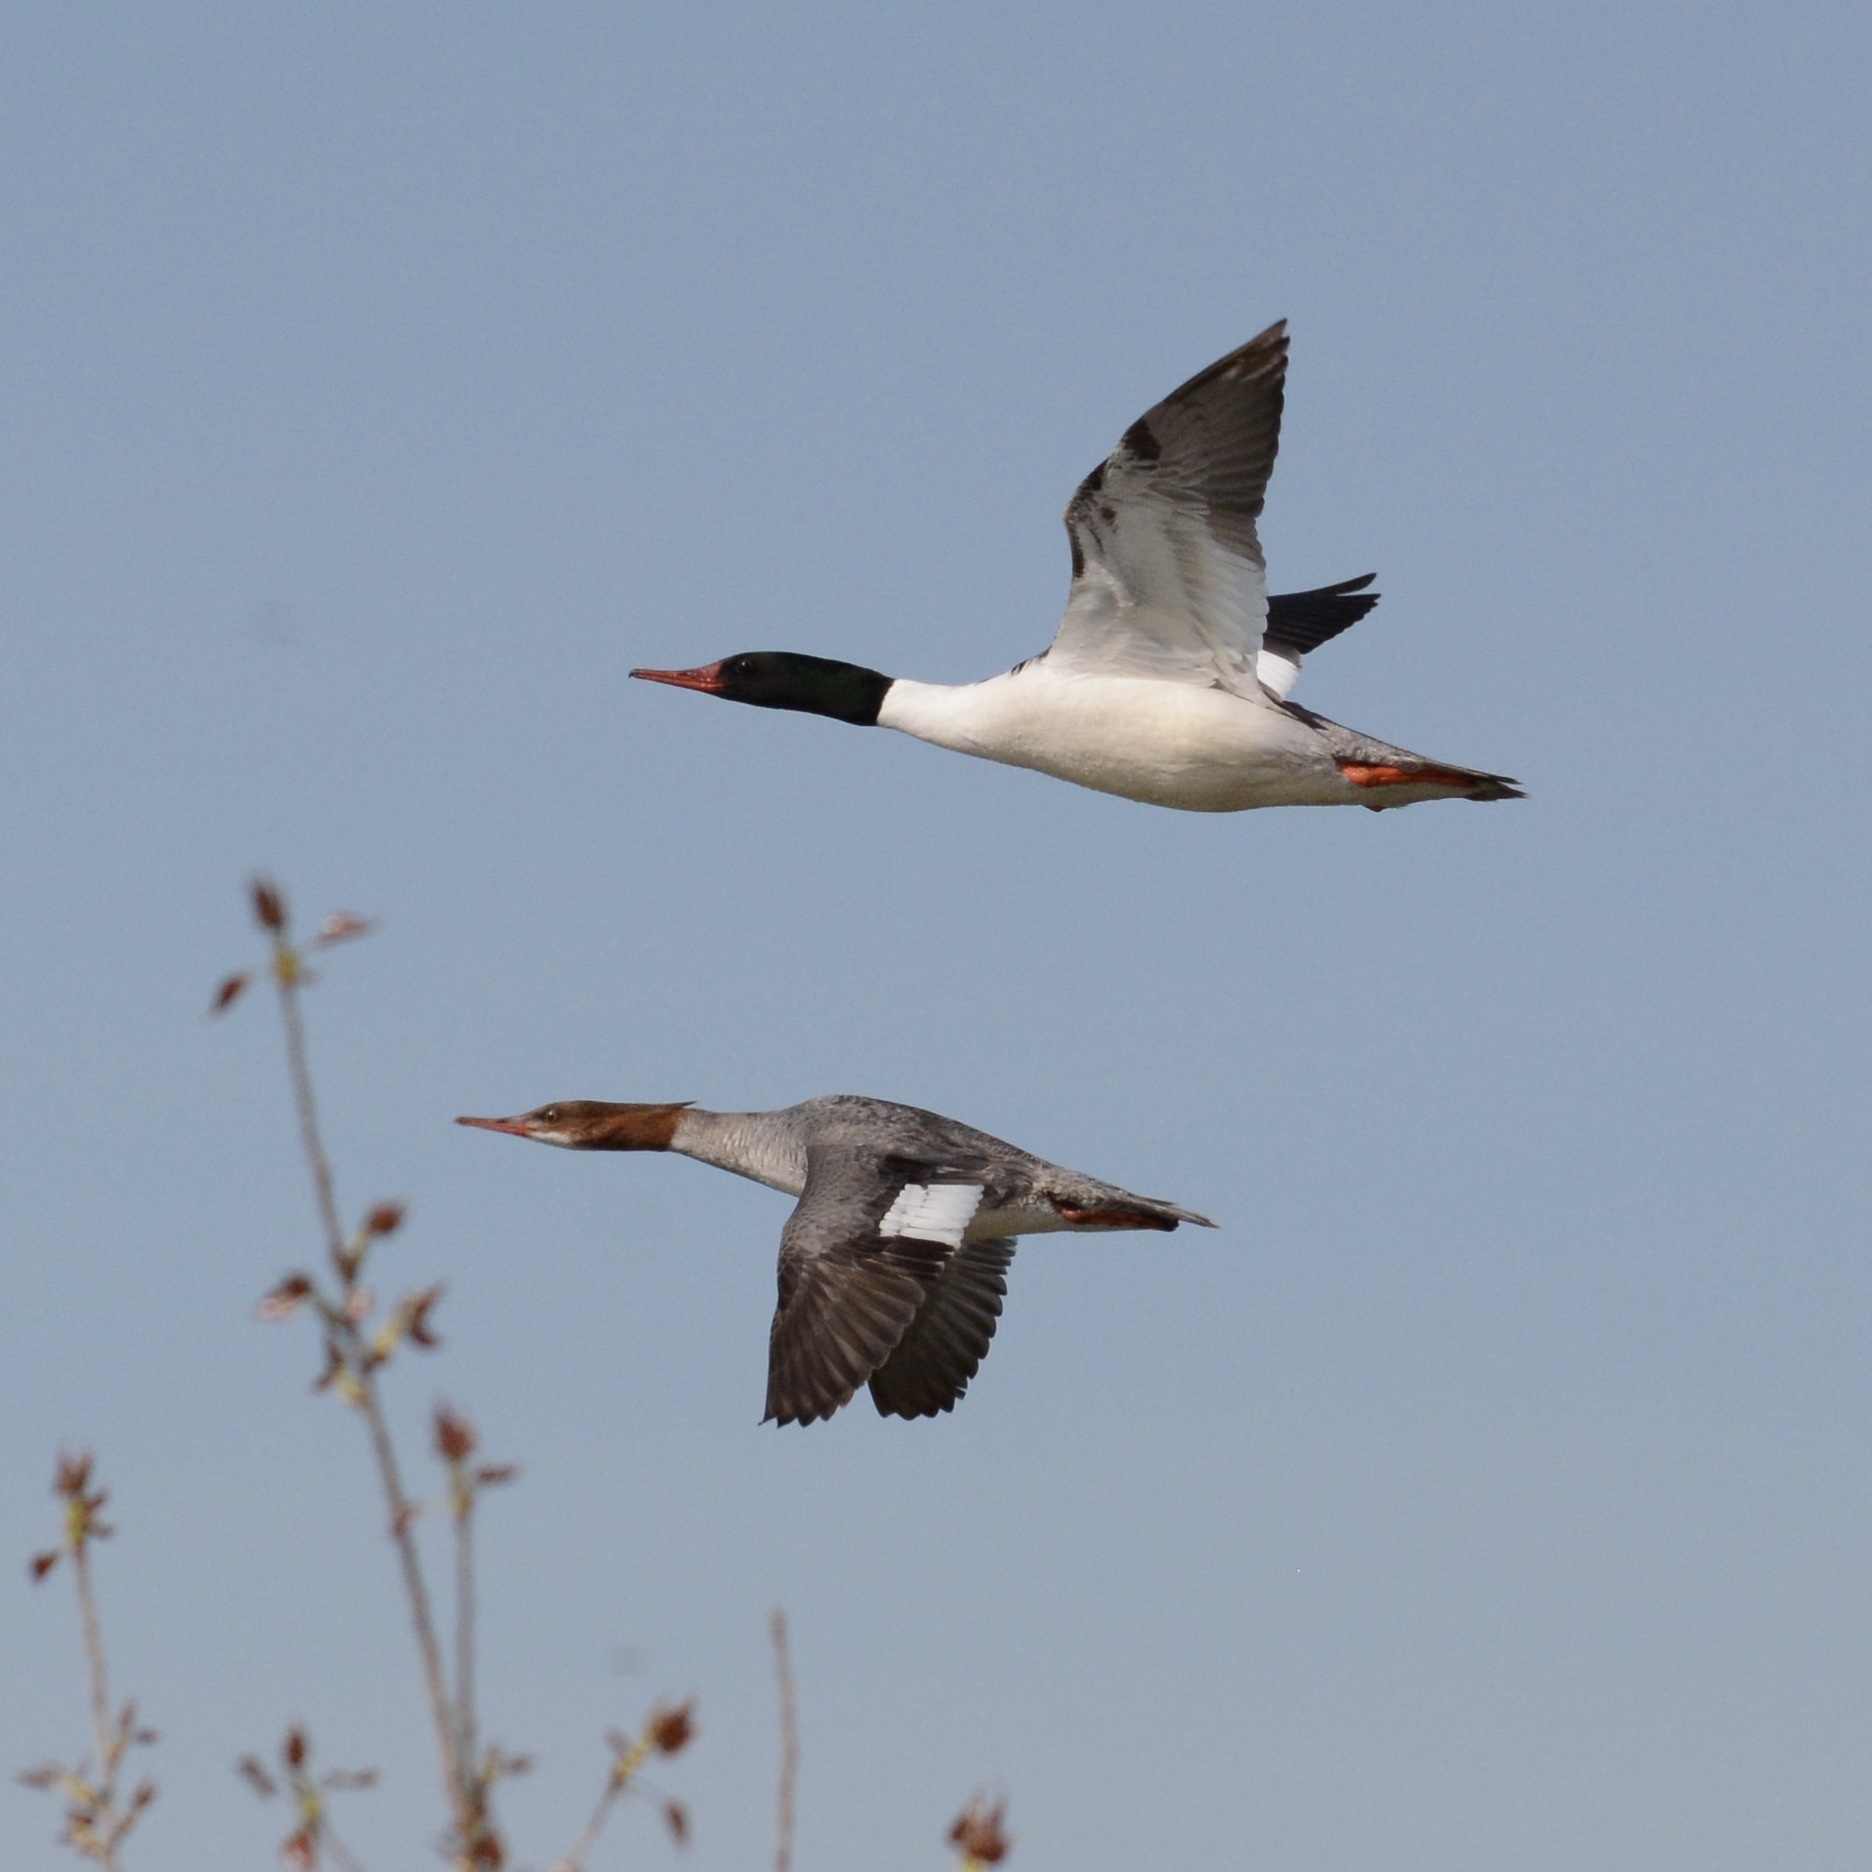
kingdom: Animalia
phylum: Chordata
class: Aves
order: Anseriformes
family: Anatidae
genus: Mergus
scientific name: Mergus merganser
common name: Common merganser
